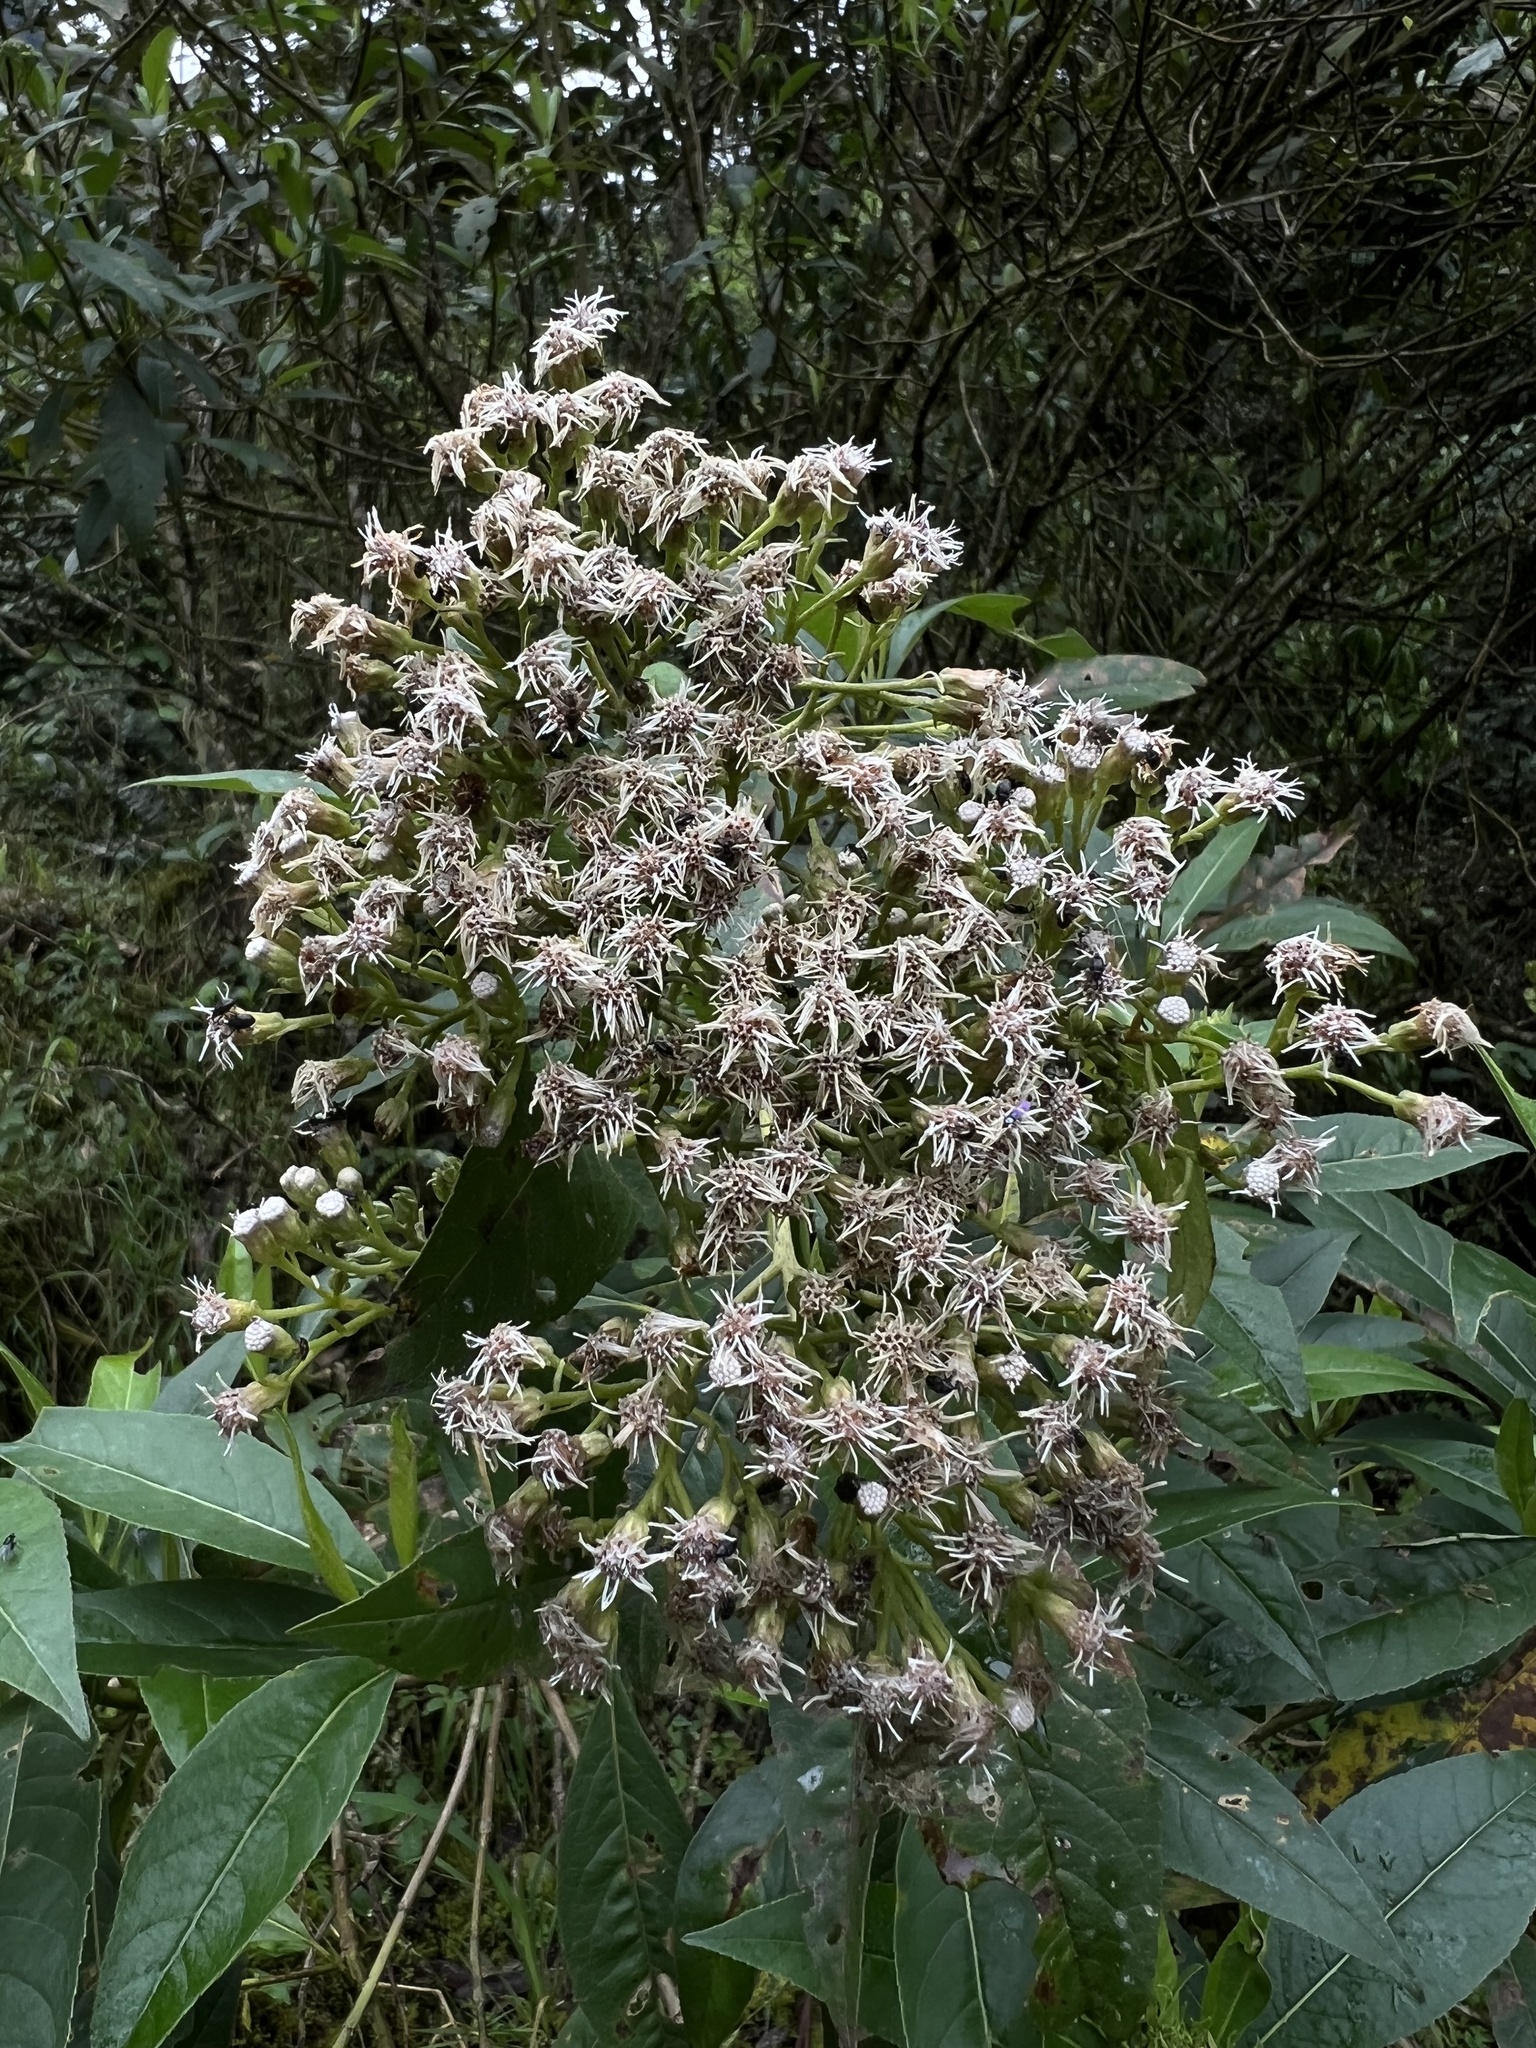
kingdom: Plantae
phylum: Tracheophyta
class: Magnoliopsida
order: Asterales
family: Asteraceae
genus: Ageratina
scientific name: Ageratina popayanensis
